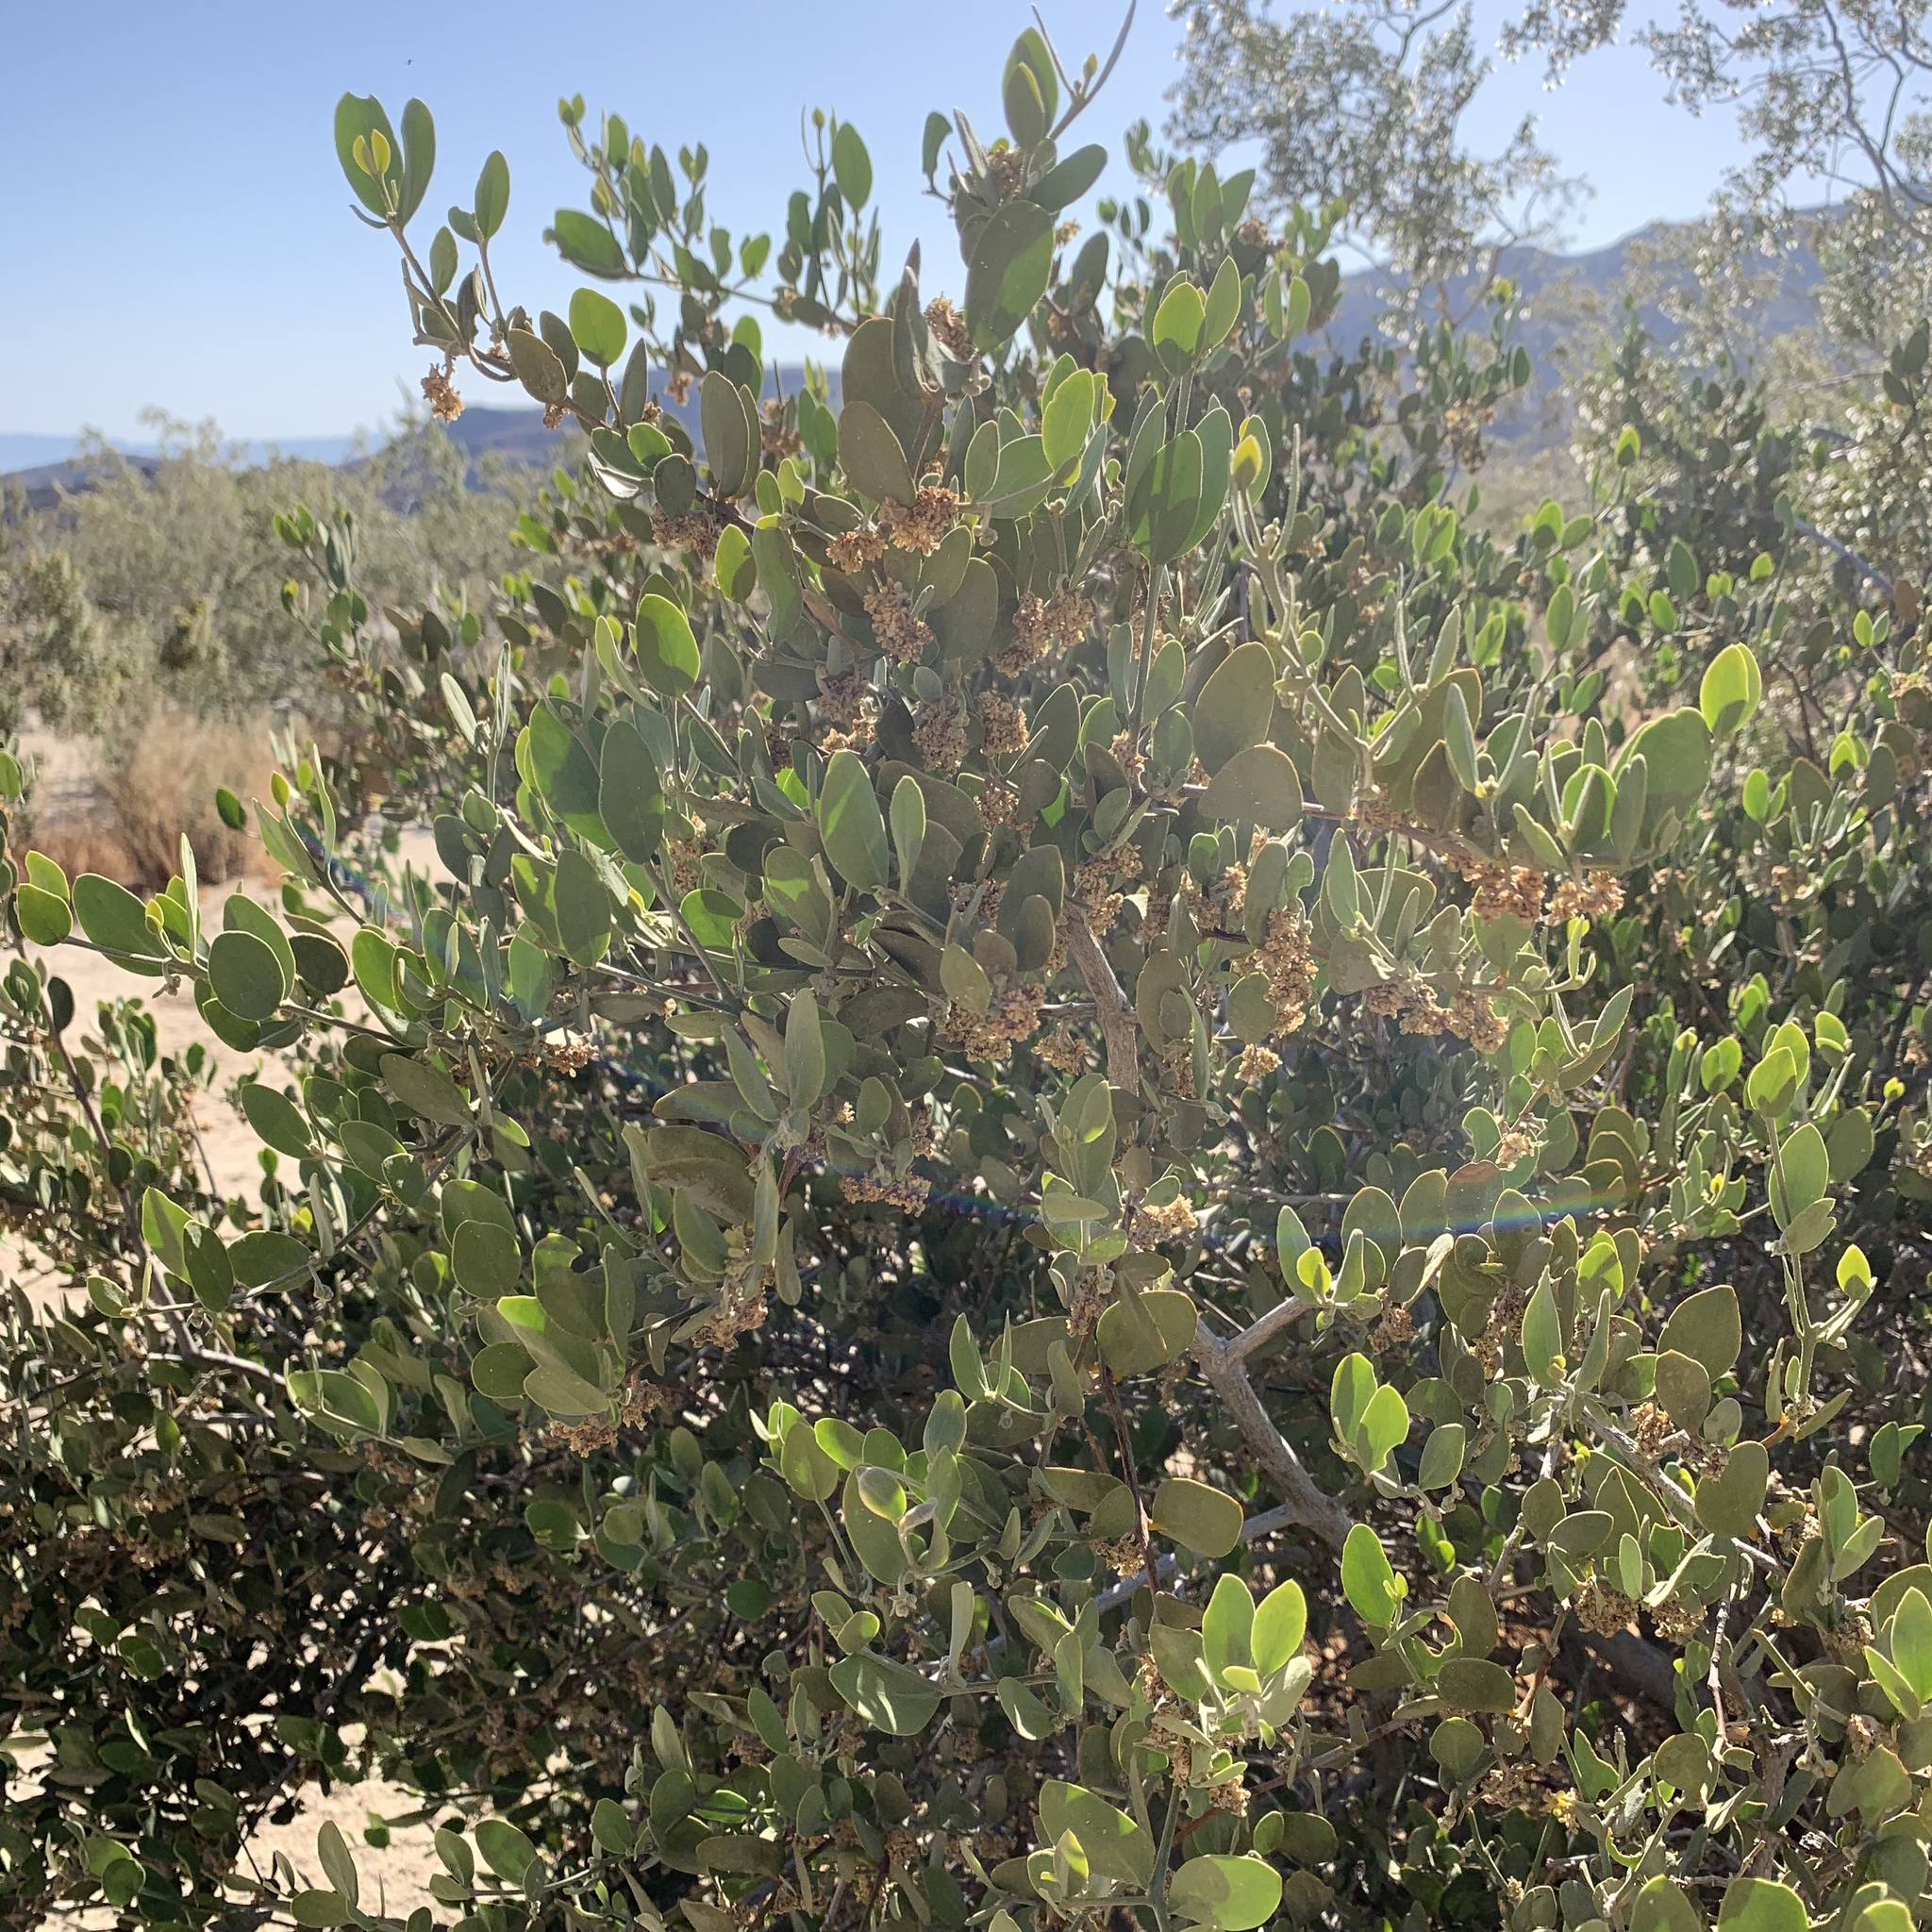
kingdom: Plantae
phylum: Tracheophyta
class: Magnoliopsida
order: Caryophyllales
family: Simmondsiaceae
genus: Simmondsia
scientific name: Simmondsia chinensis
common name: Jojoba
